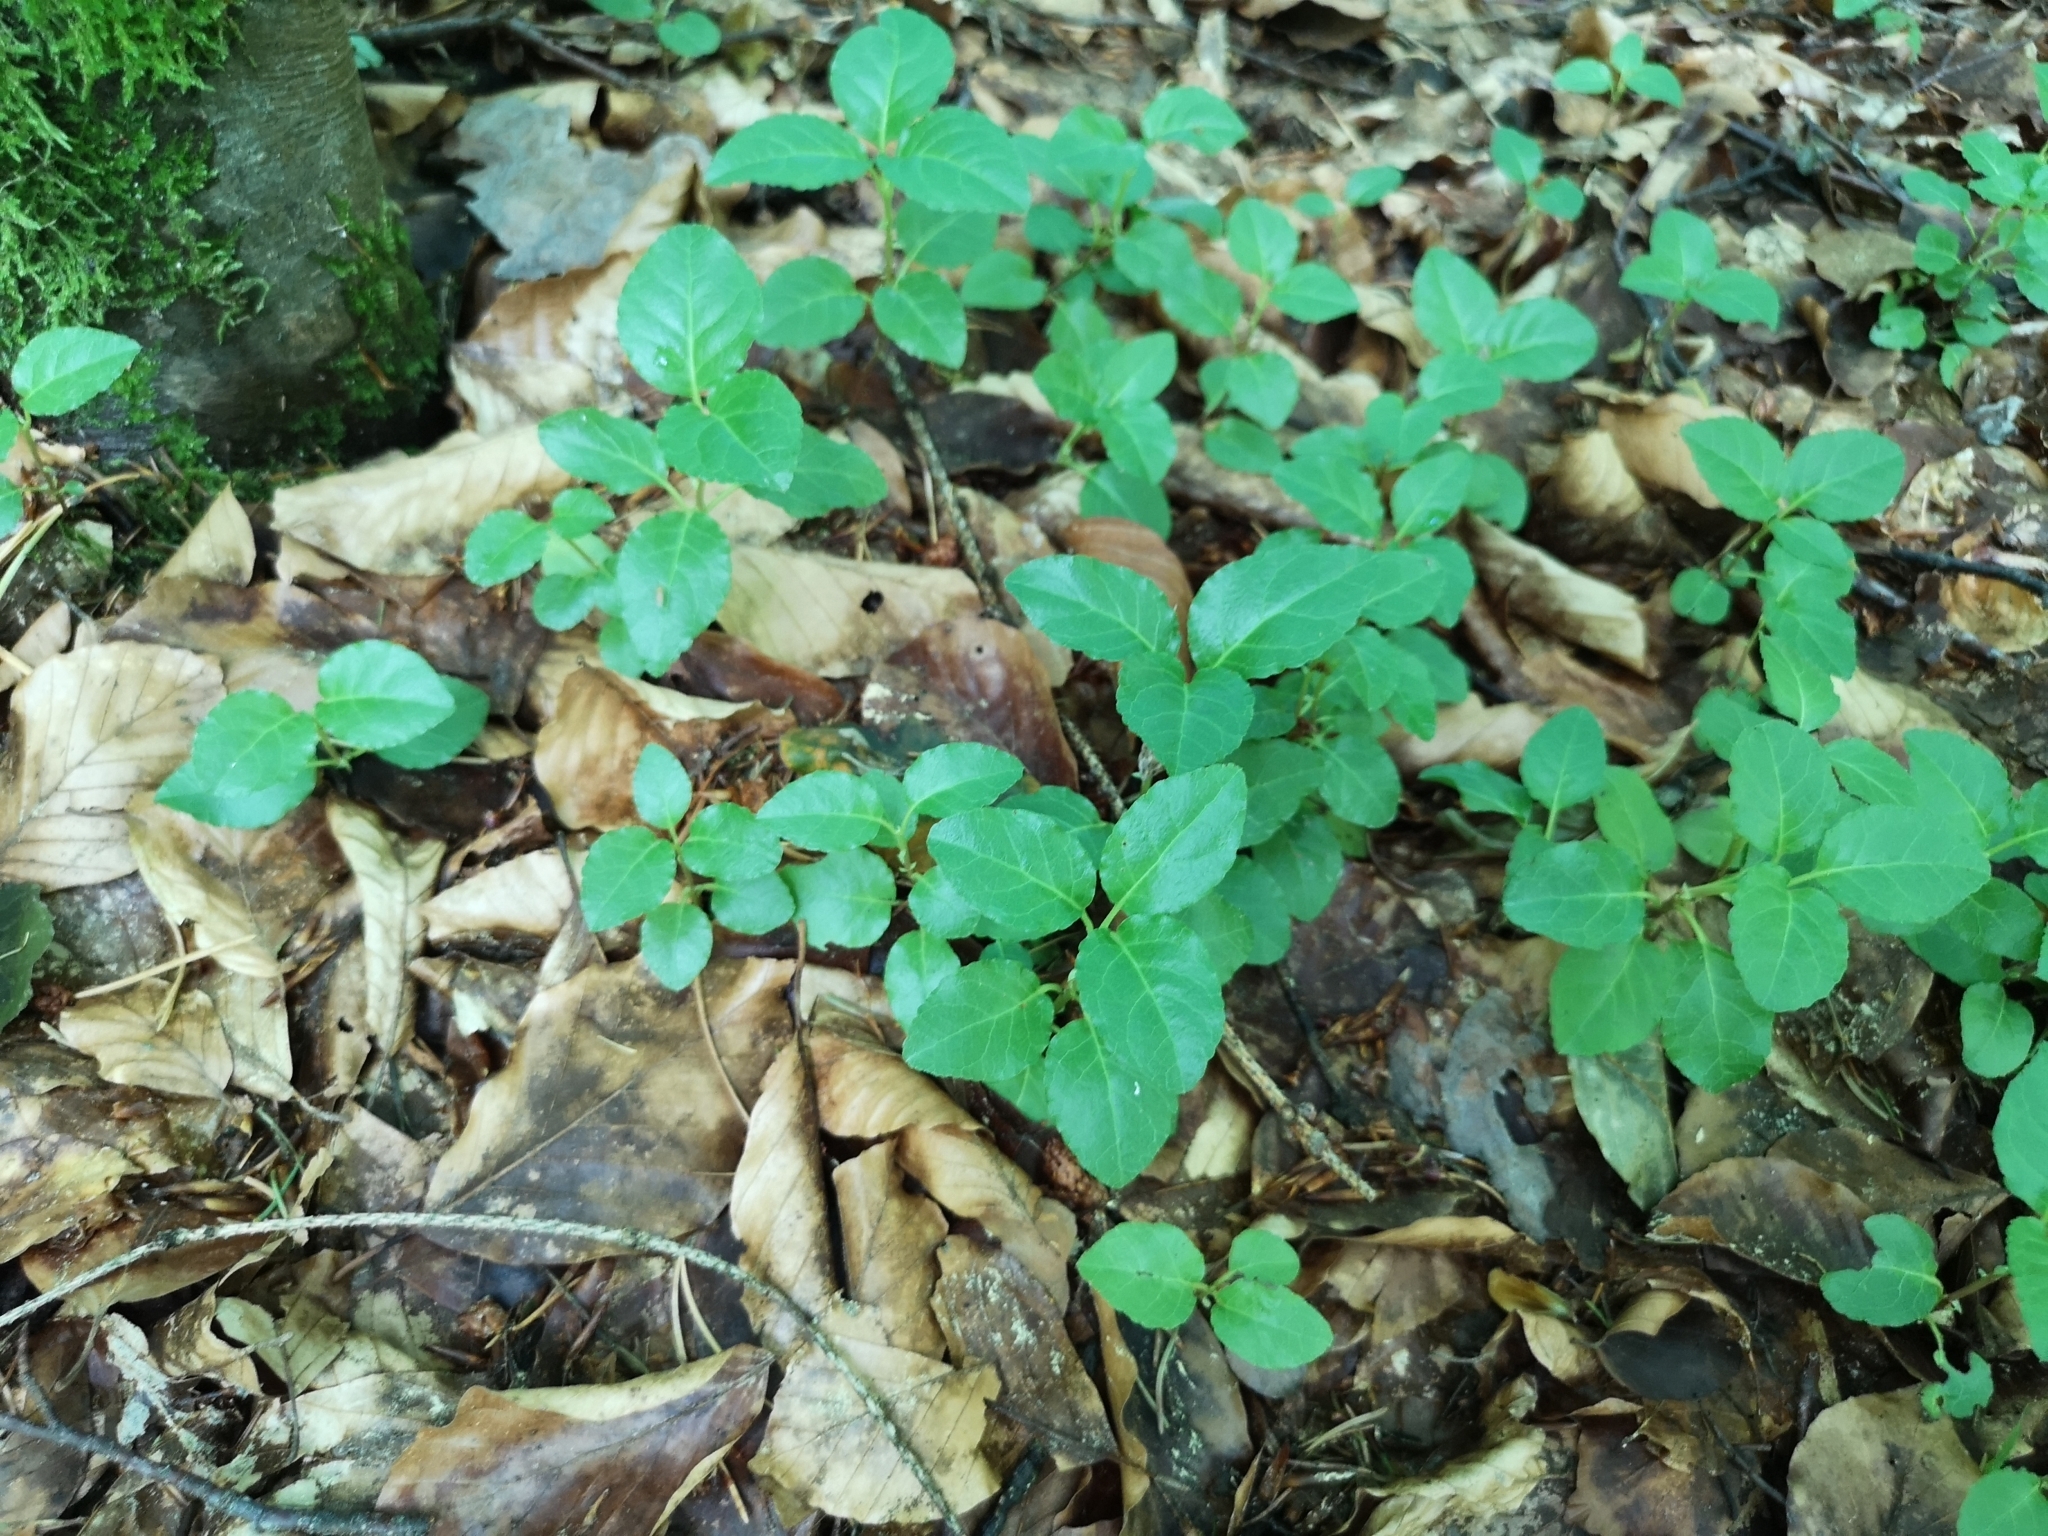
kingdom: Plantae
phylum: Tracheophyta
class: Magnoliopsida
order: Ericales
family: Ericaceae
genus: Orthilia
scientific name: Orthilia secunda
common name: One-sided orthilia
